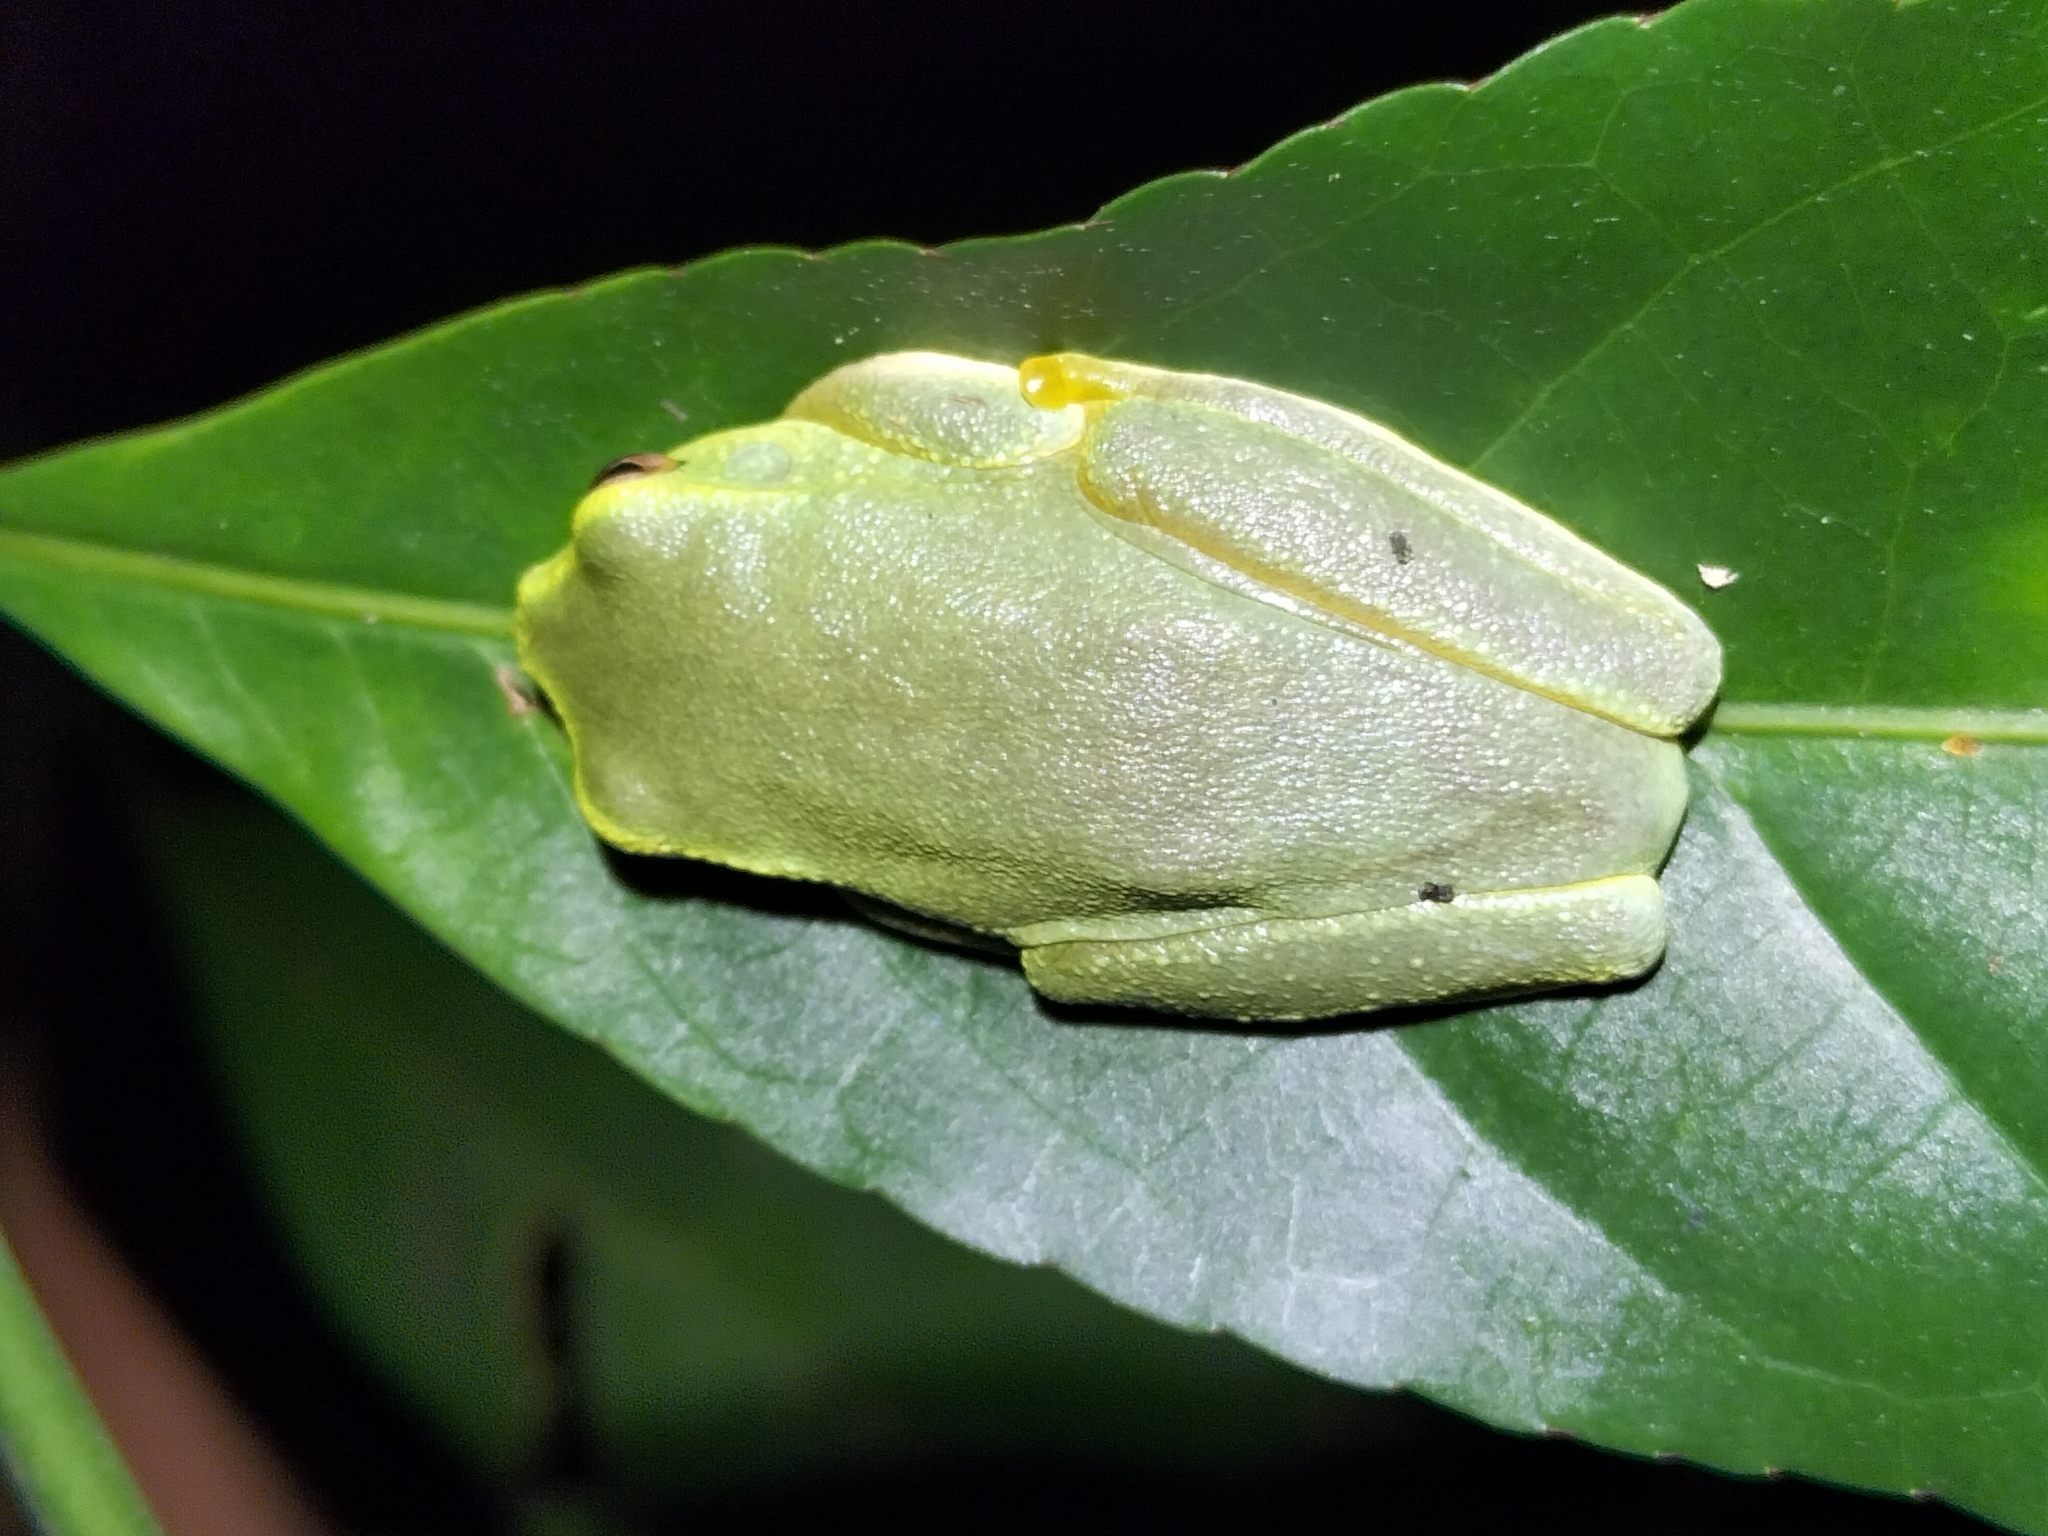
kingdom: Animalia
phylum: Chordata
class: Amphibia
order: Anura
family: Pelodryadidae
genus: Ranoidea
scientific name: Ranoidea gracilenta
